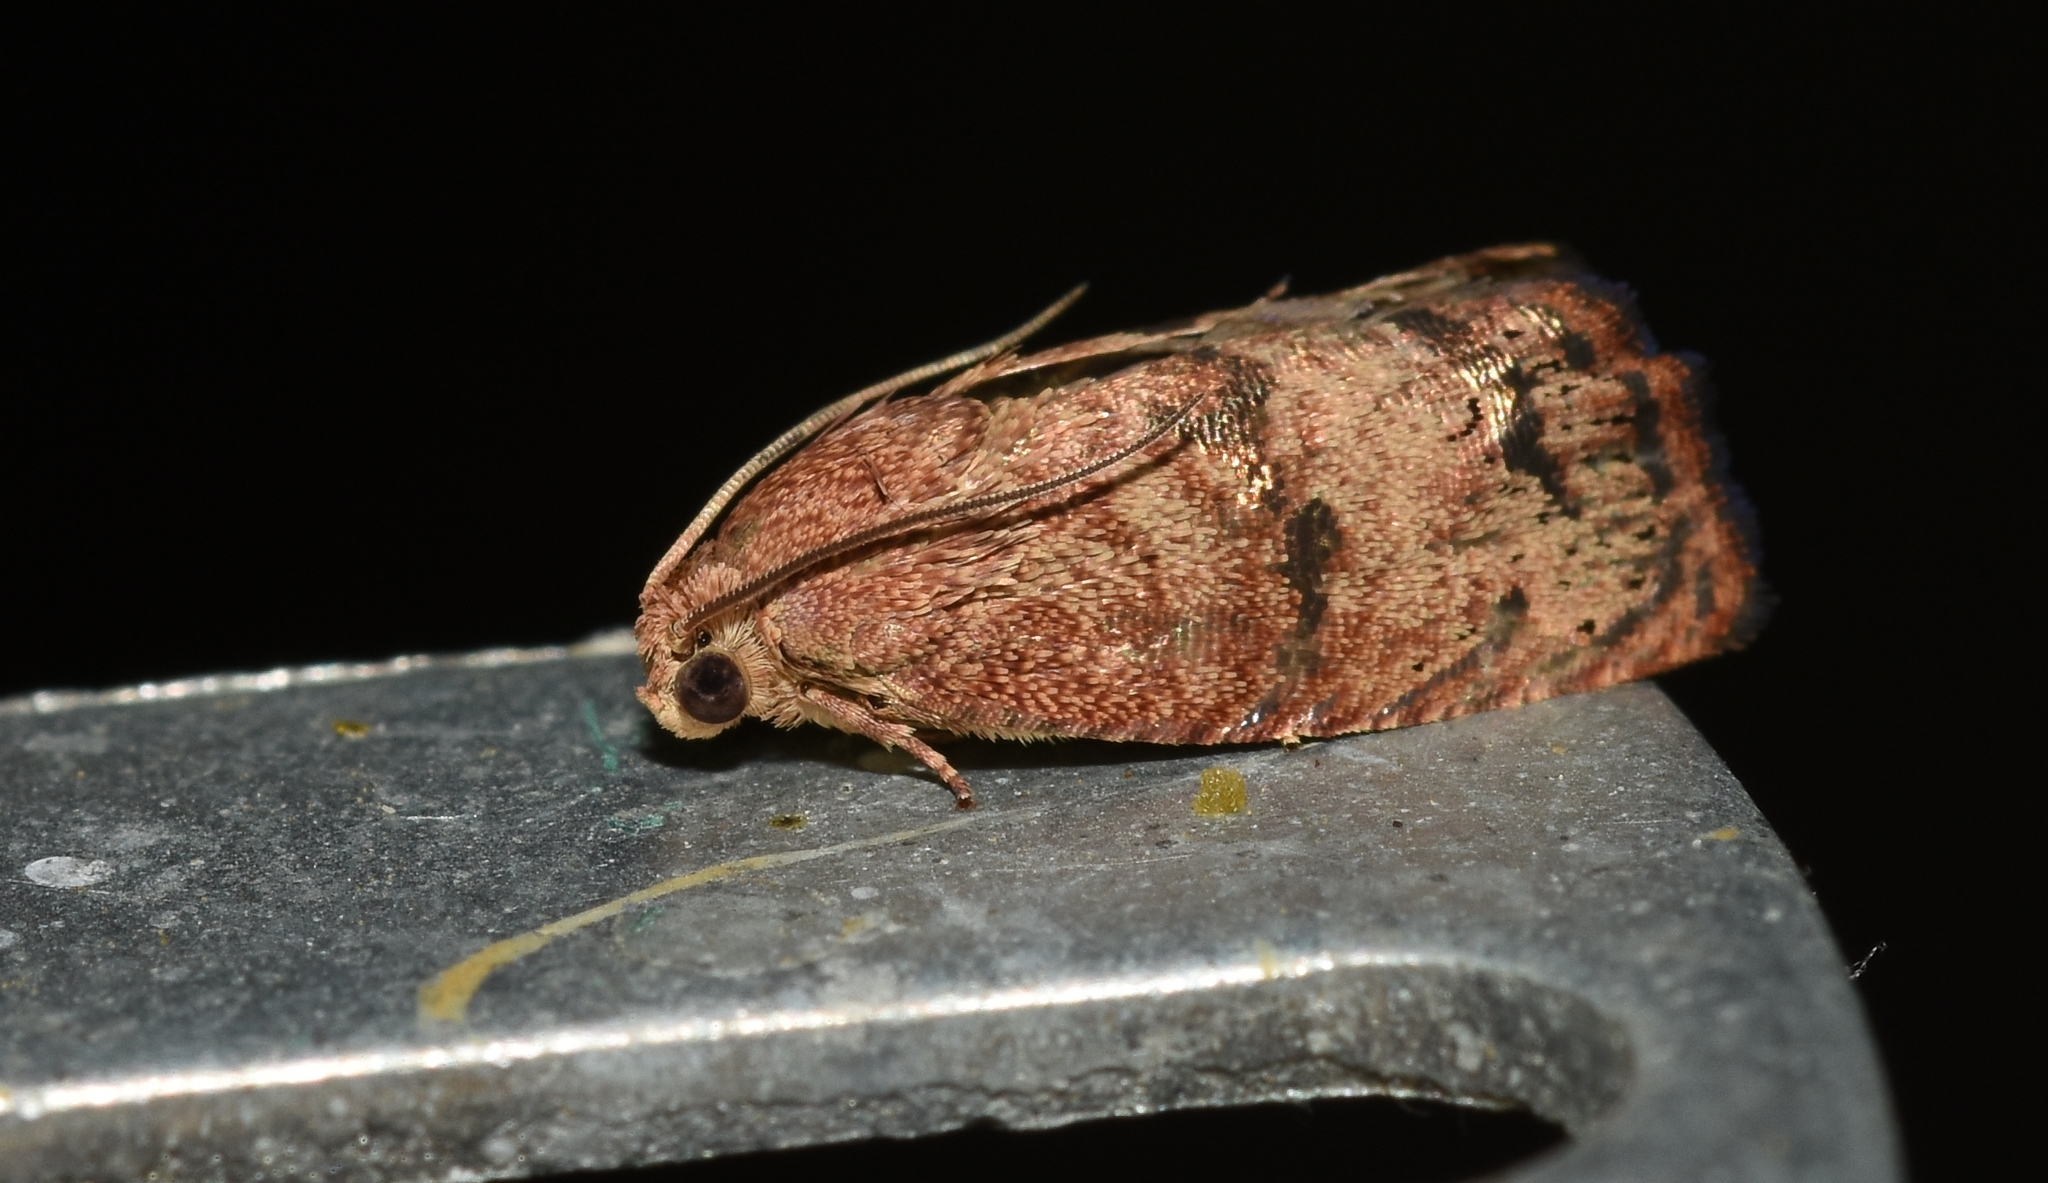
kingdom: Animalia
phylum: Arthropoda
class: Insecta
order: Lepidoptera
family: Tortricidae
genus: Cydia
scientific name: Cydia latiferreana
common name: Filbertworm moth
